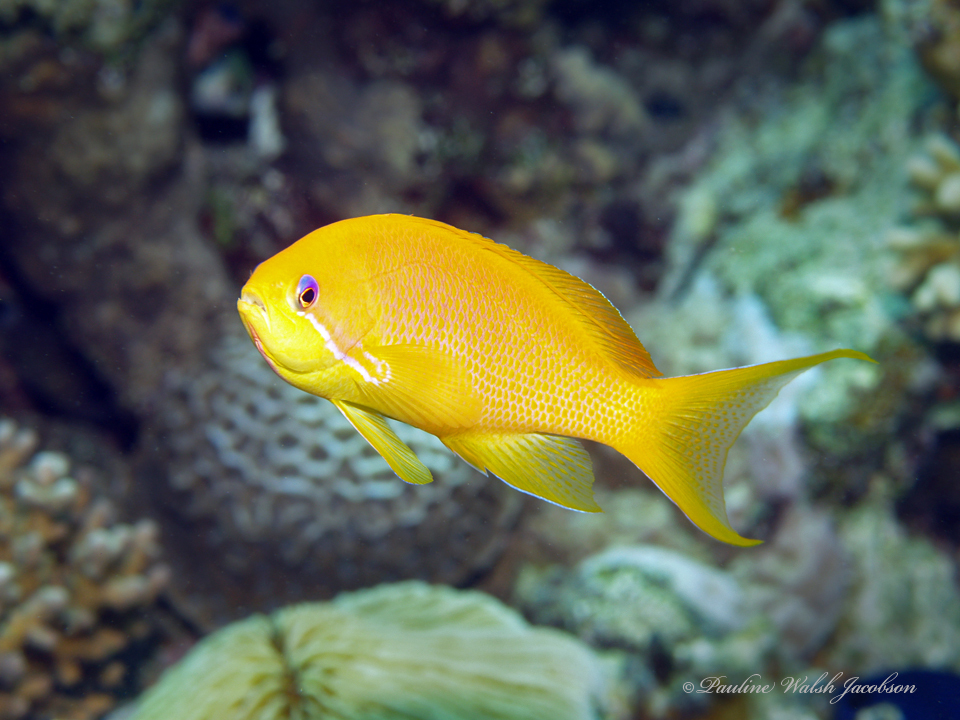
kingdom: Animalia
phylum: Chordata
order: Perciformes
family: Serranidae
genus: Pseudanthias
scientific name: Pseudanthias squamipinnis
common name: Scalefin anthias
